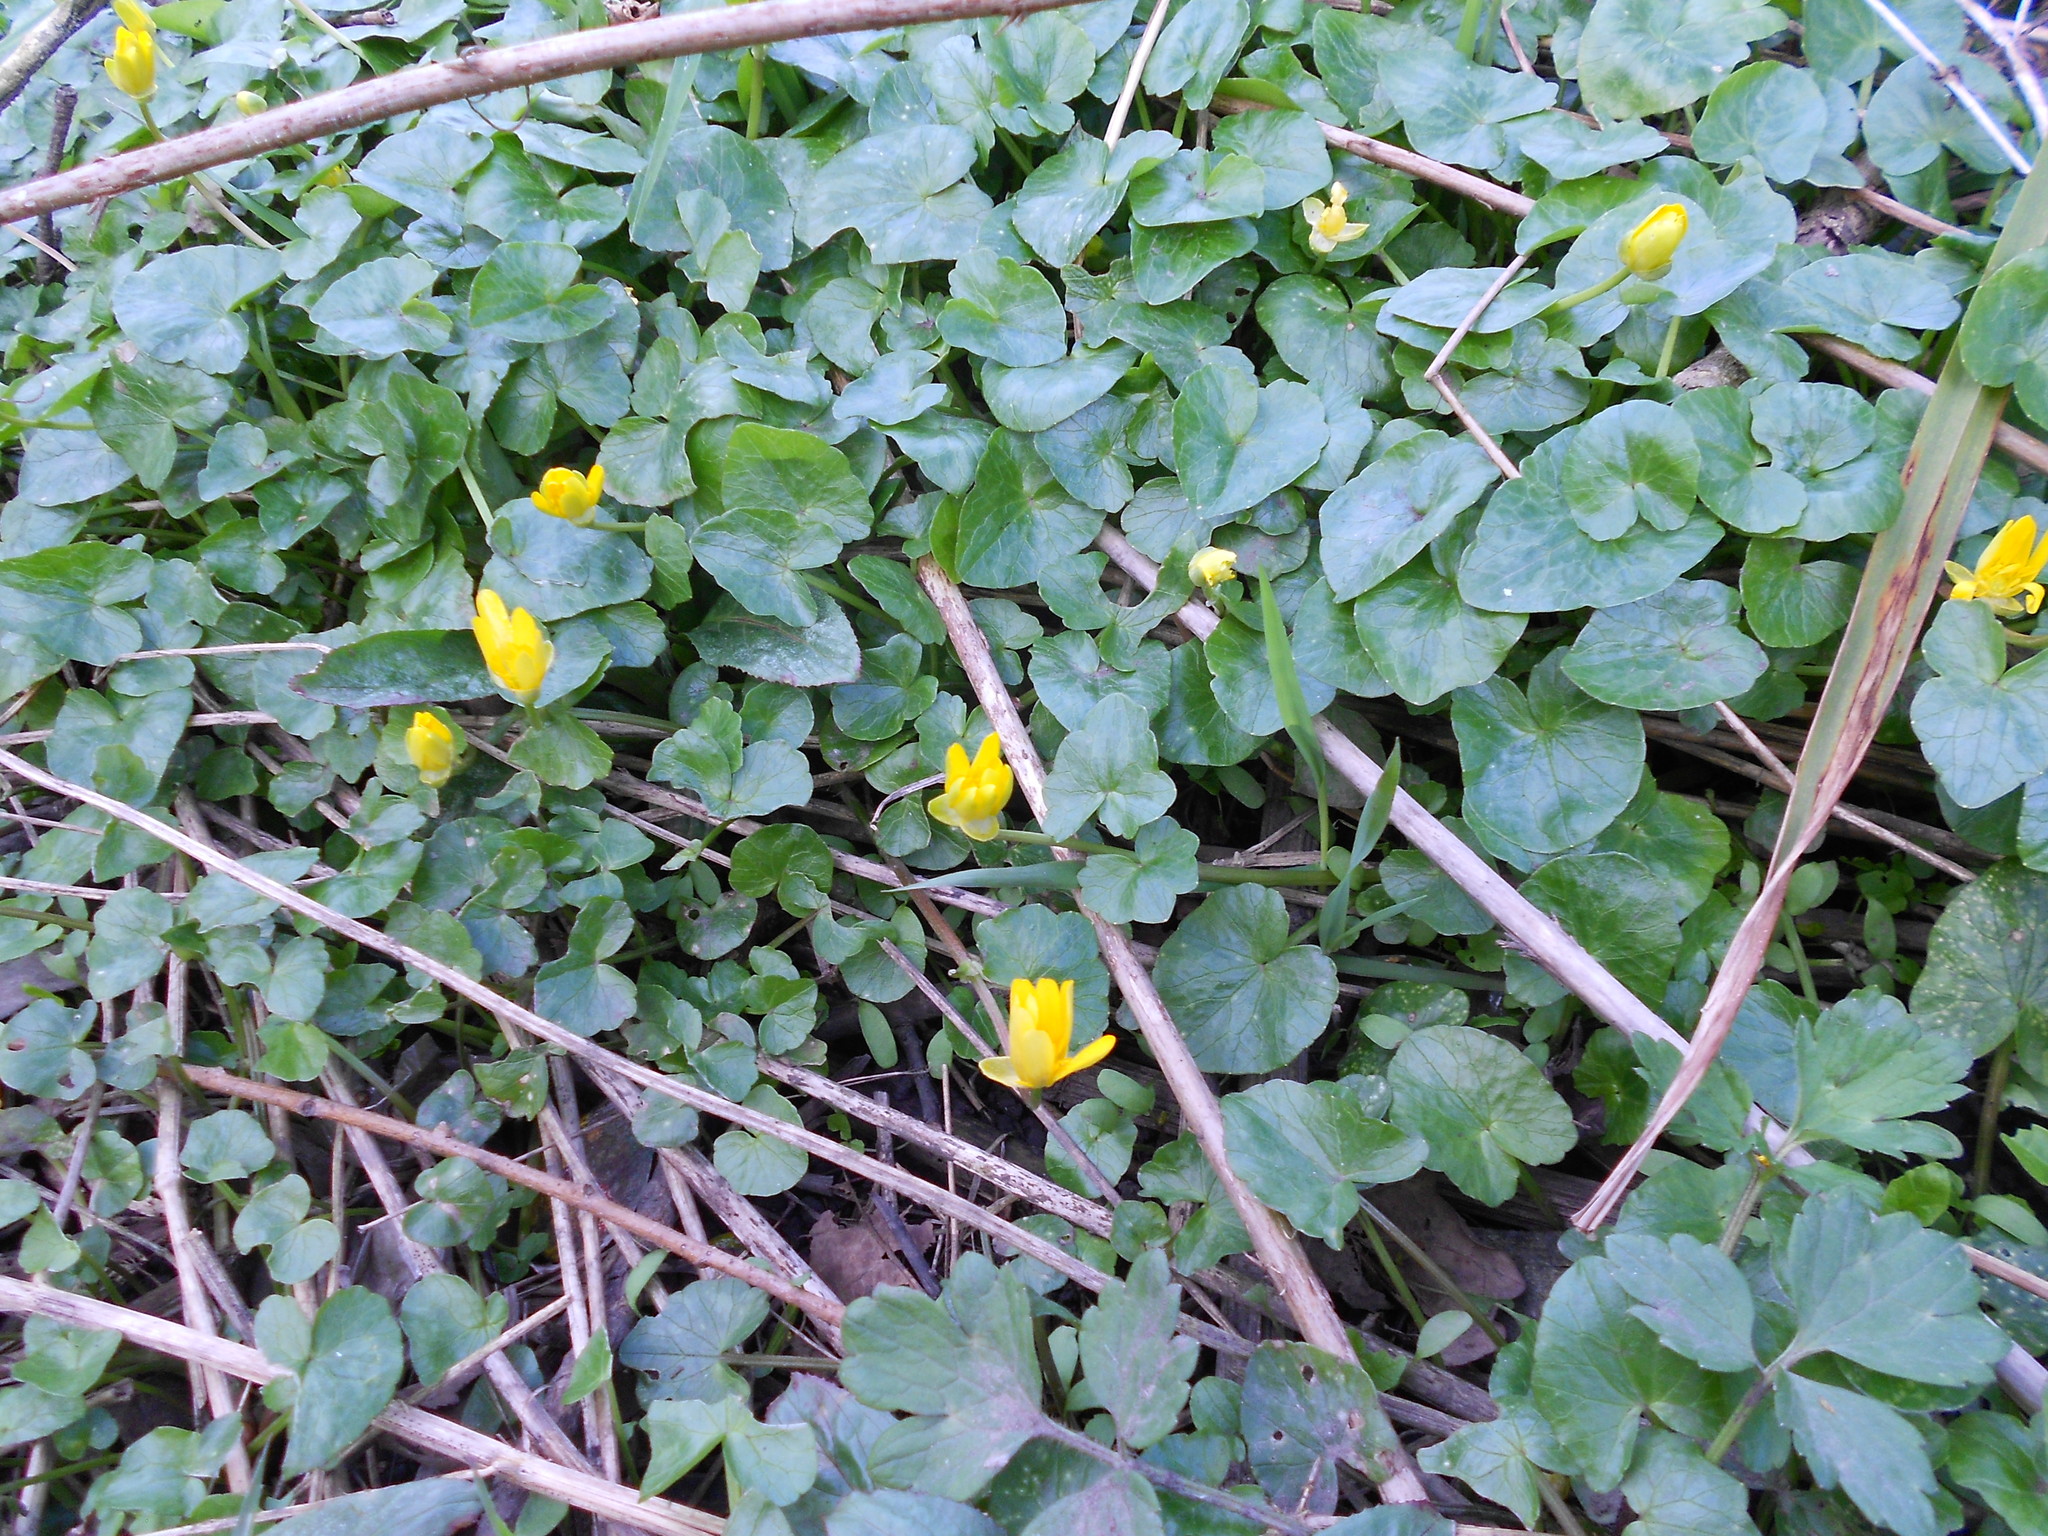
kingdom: Plantae
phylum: Tracheophyta
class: Magnoliopsida
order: Ranunculales
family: Ranunculaceae
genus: Ficaria
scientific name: Ficaria verna
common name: Lesser celandine
